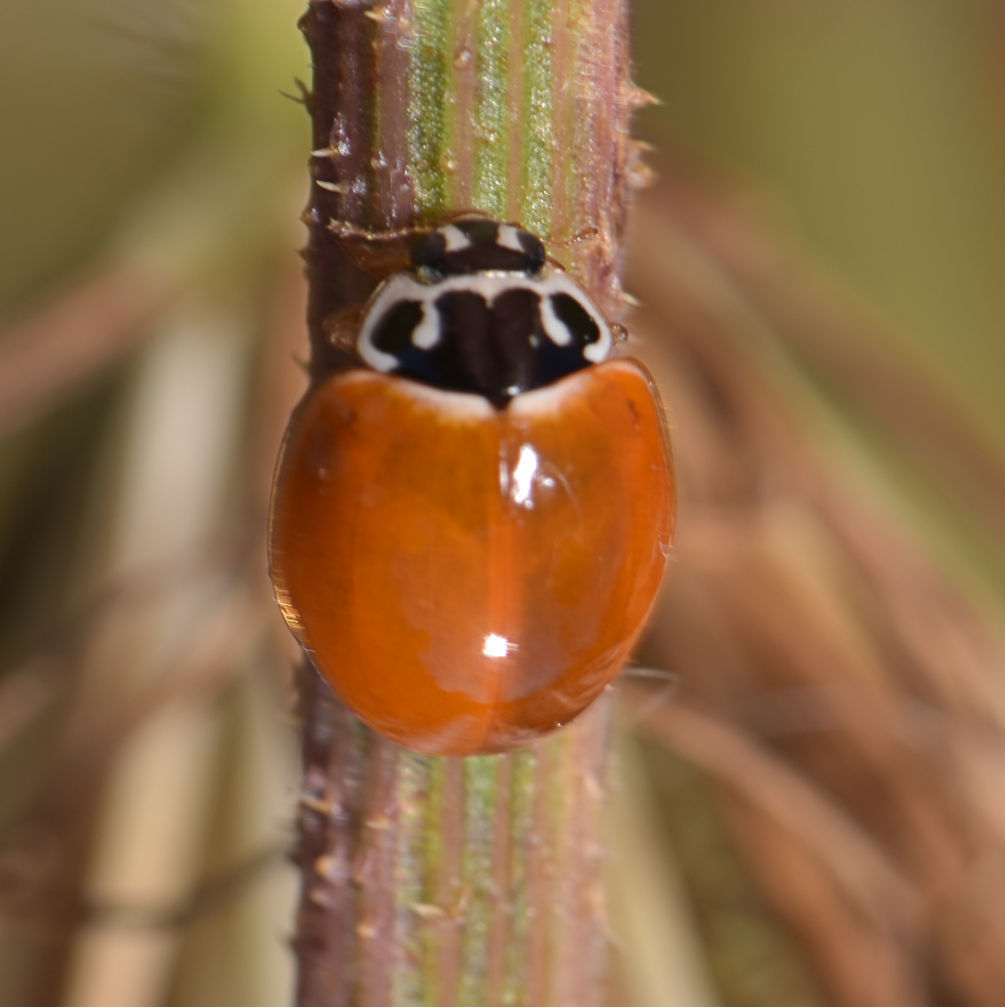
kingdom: Animalia
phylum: Arthropoda
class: Insecta
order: Coleoptera
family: Coccinellidae
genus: Cycloneda
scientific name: Cycloneda munda
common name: Polished lady beetle
